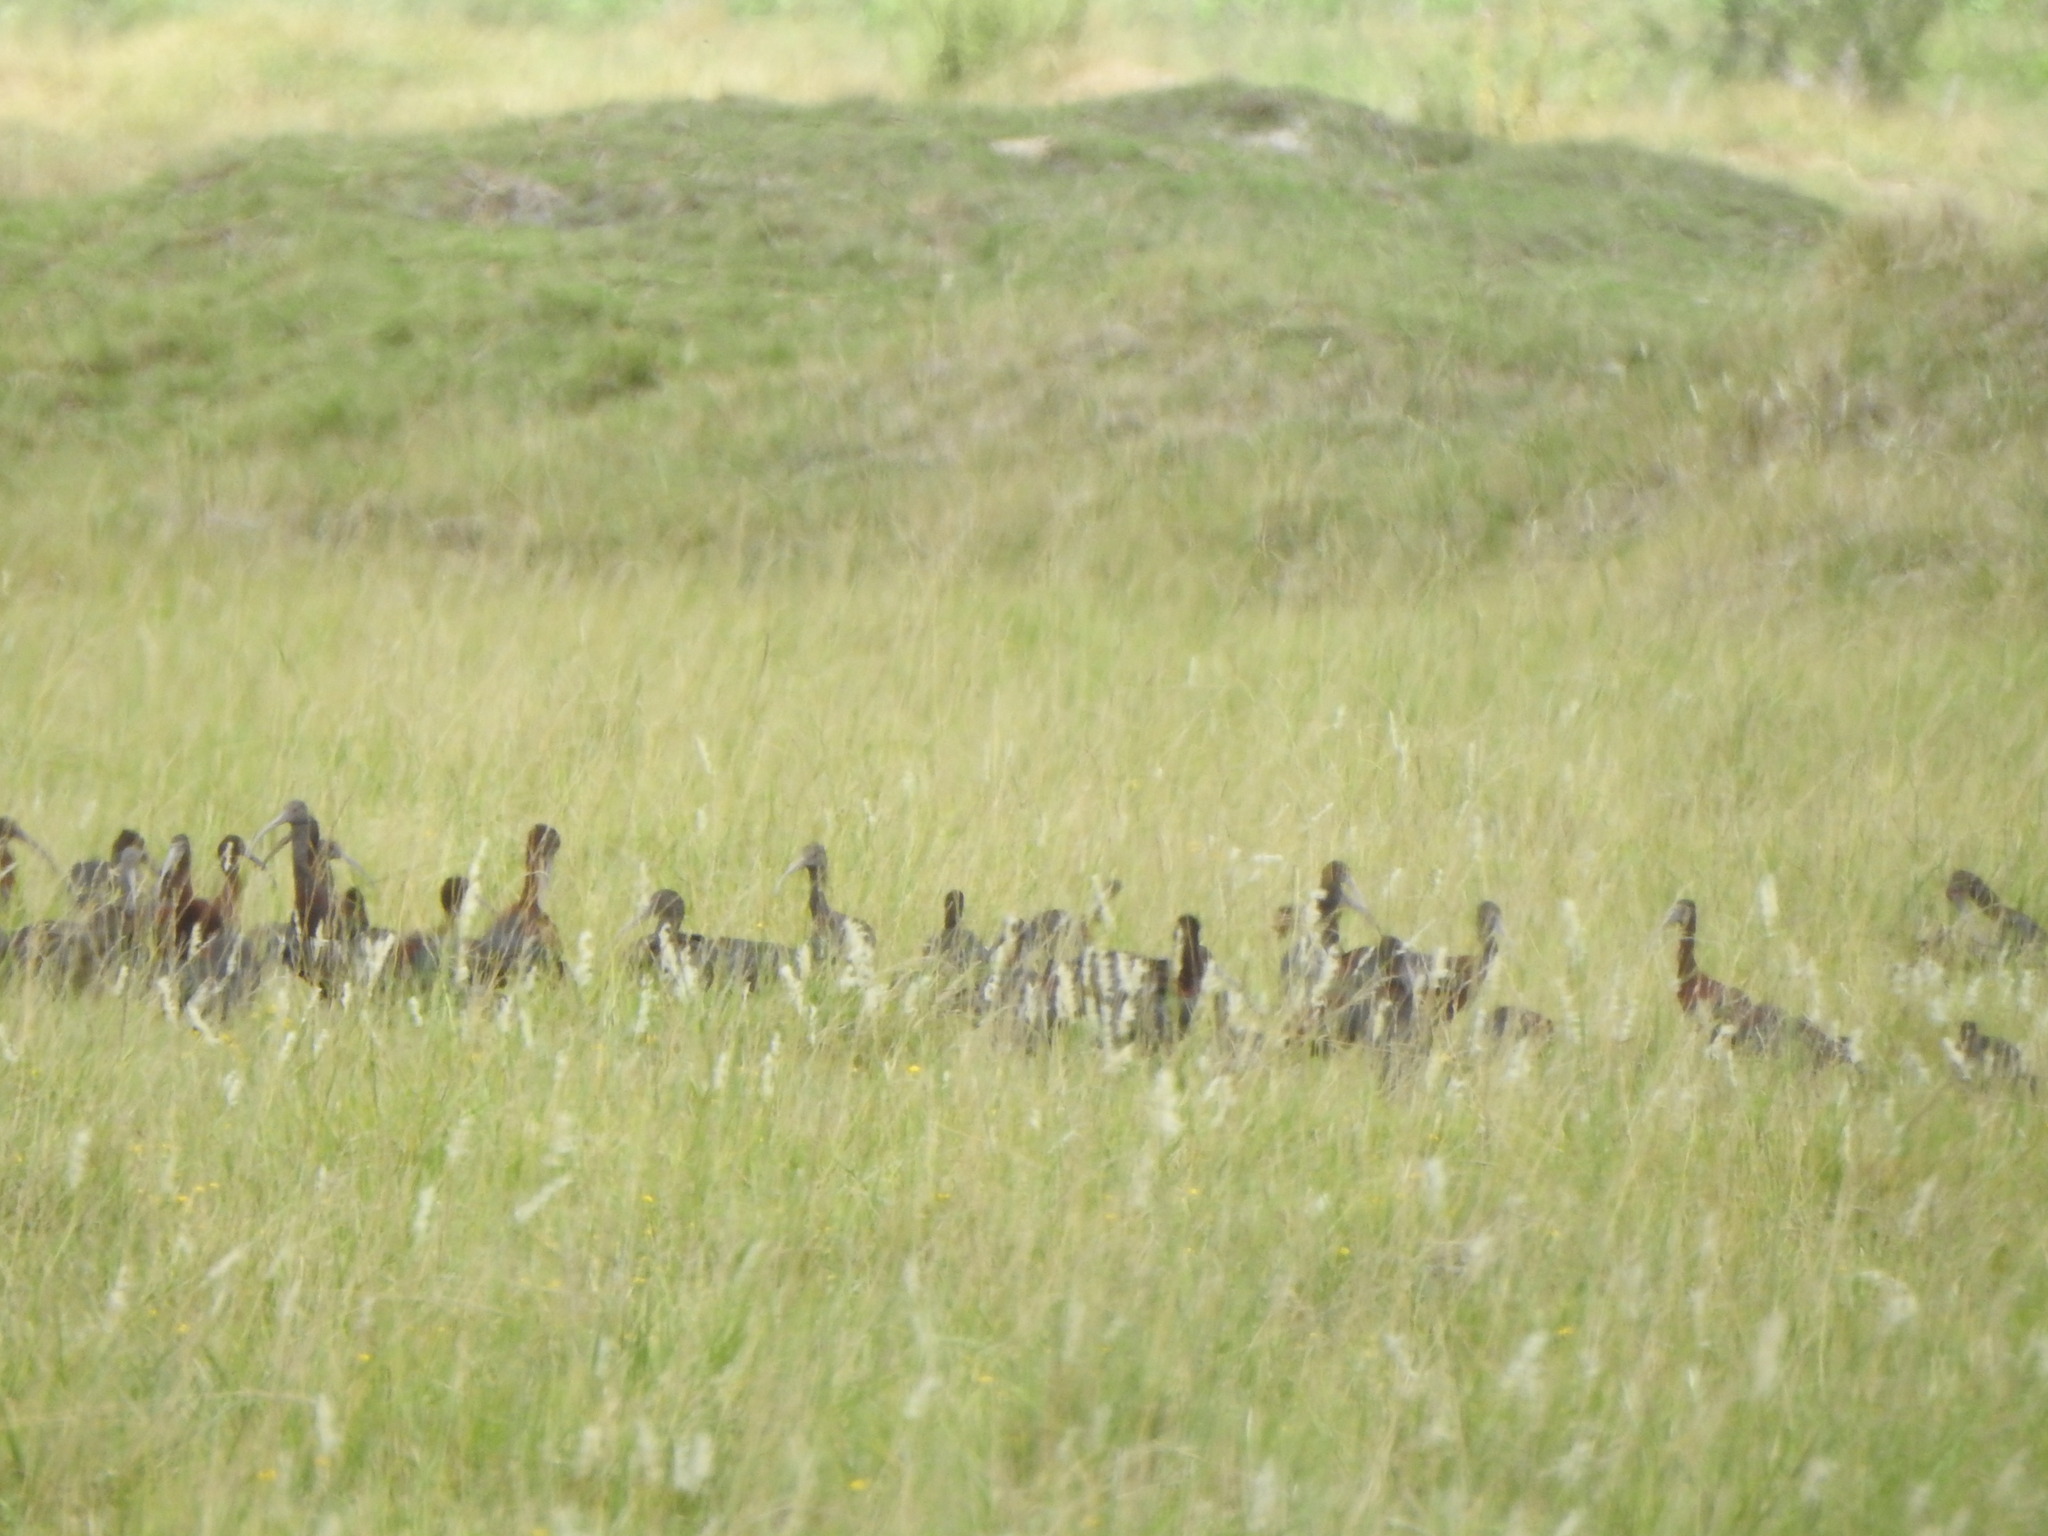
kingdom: Animalia
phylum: Chordata
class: Aves
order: Pelecaniformes
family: Threskiornithidae
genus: Plegadis
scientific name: Plegadis chihi
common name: White-faced ibis
